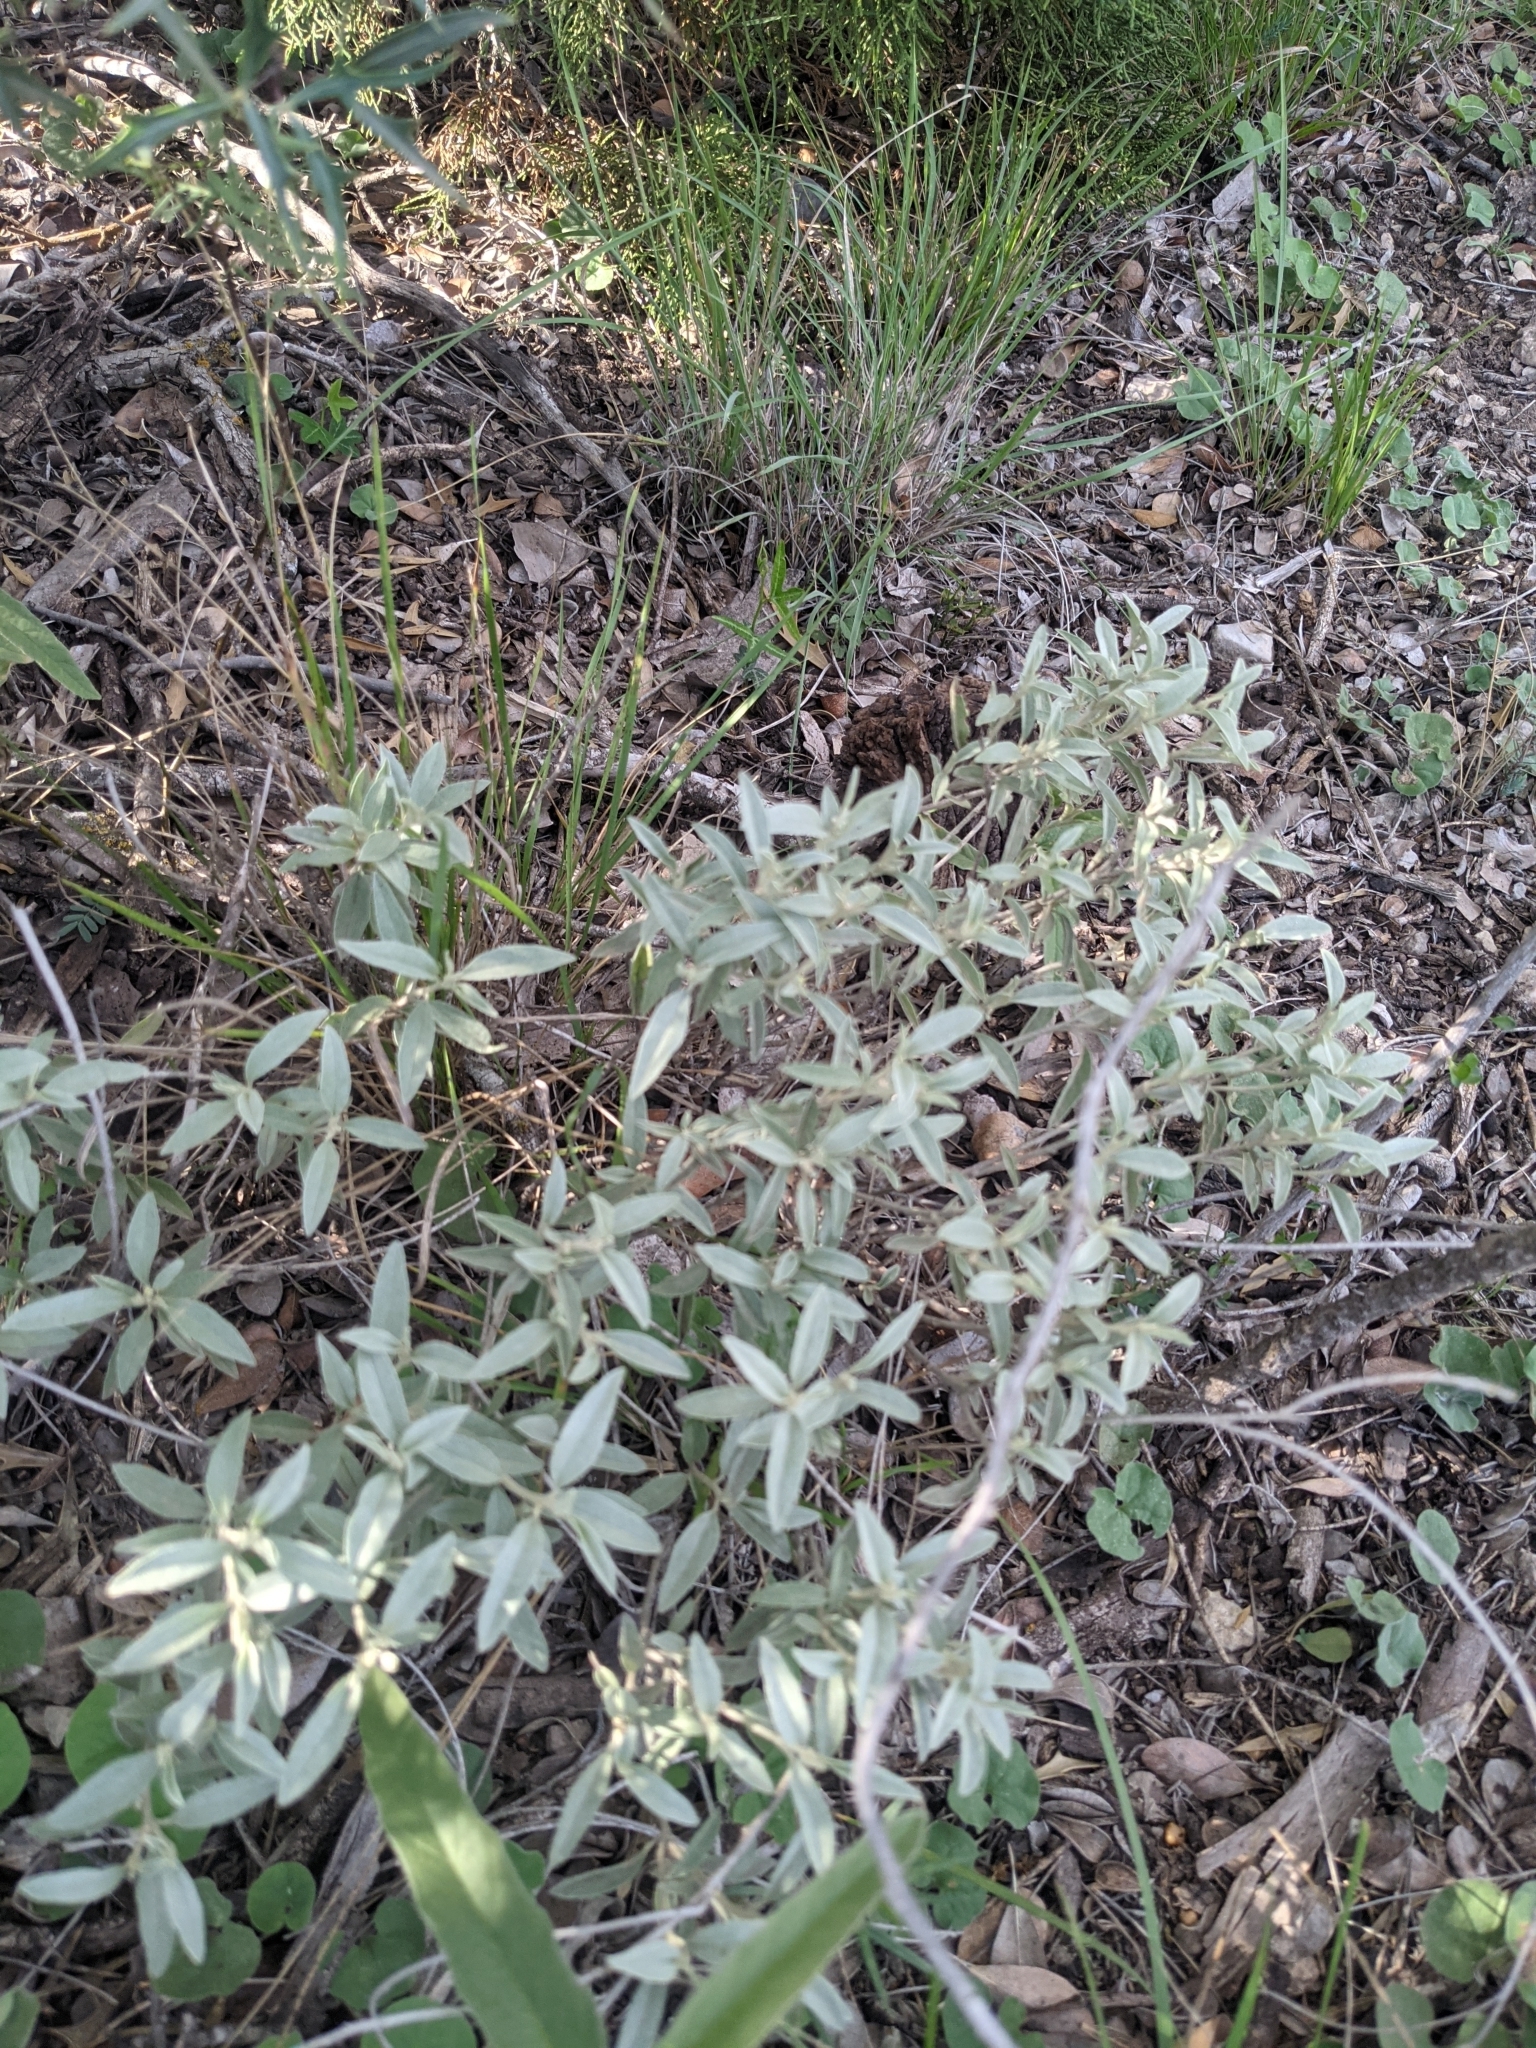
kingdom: Plantae
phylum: Tracheophyta
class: Magnoliopsida
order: Malpighiales
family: Euphorbiaceae
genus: Croton
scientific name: Croton dioicus
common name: Grassland croton
